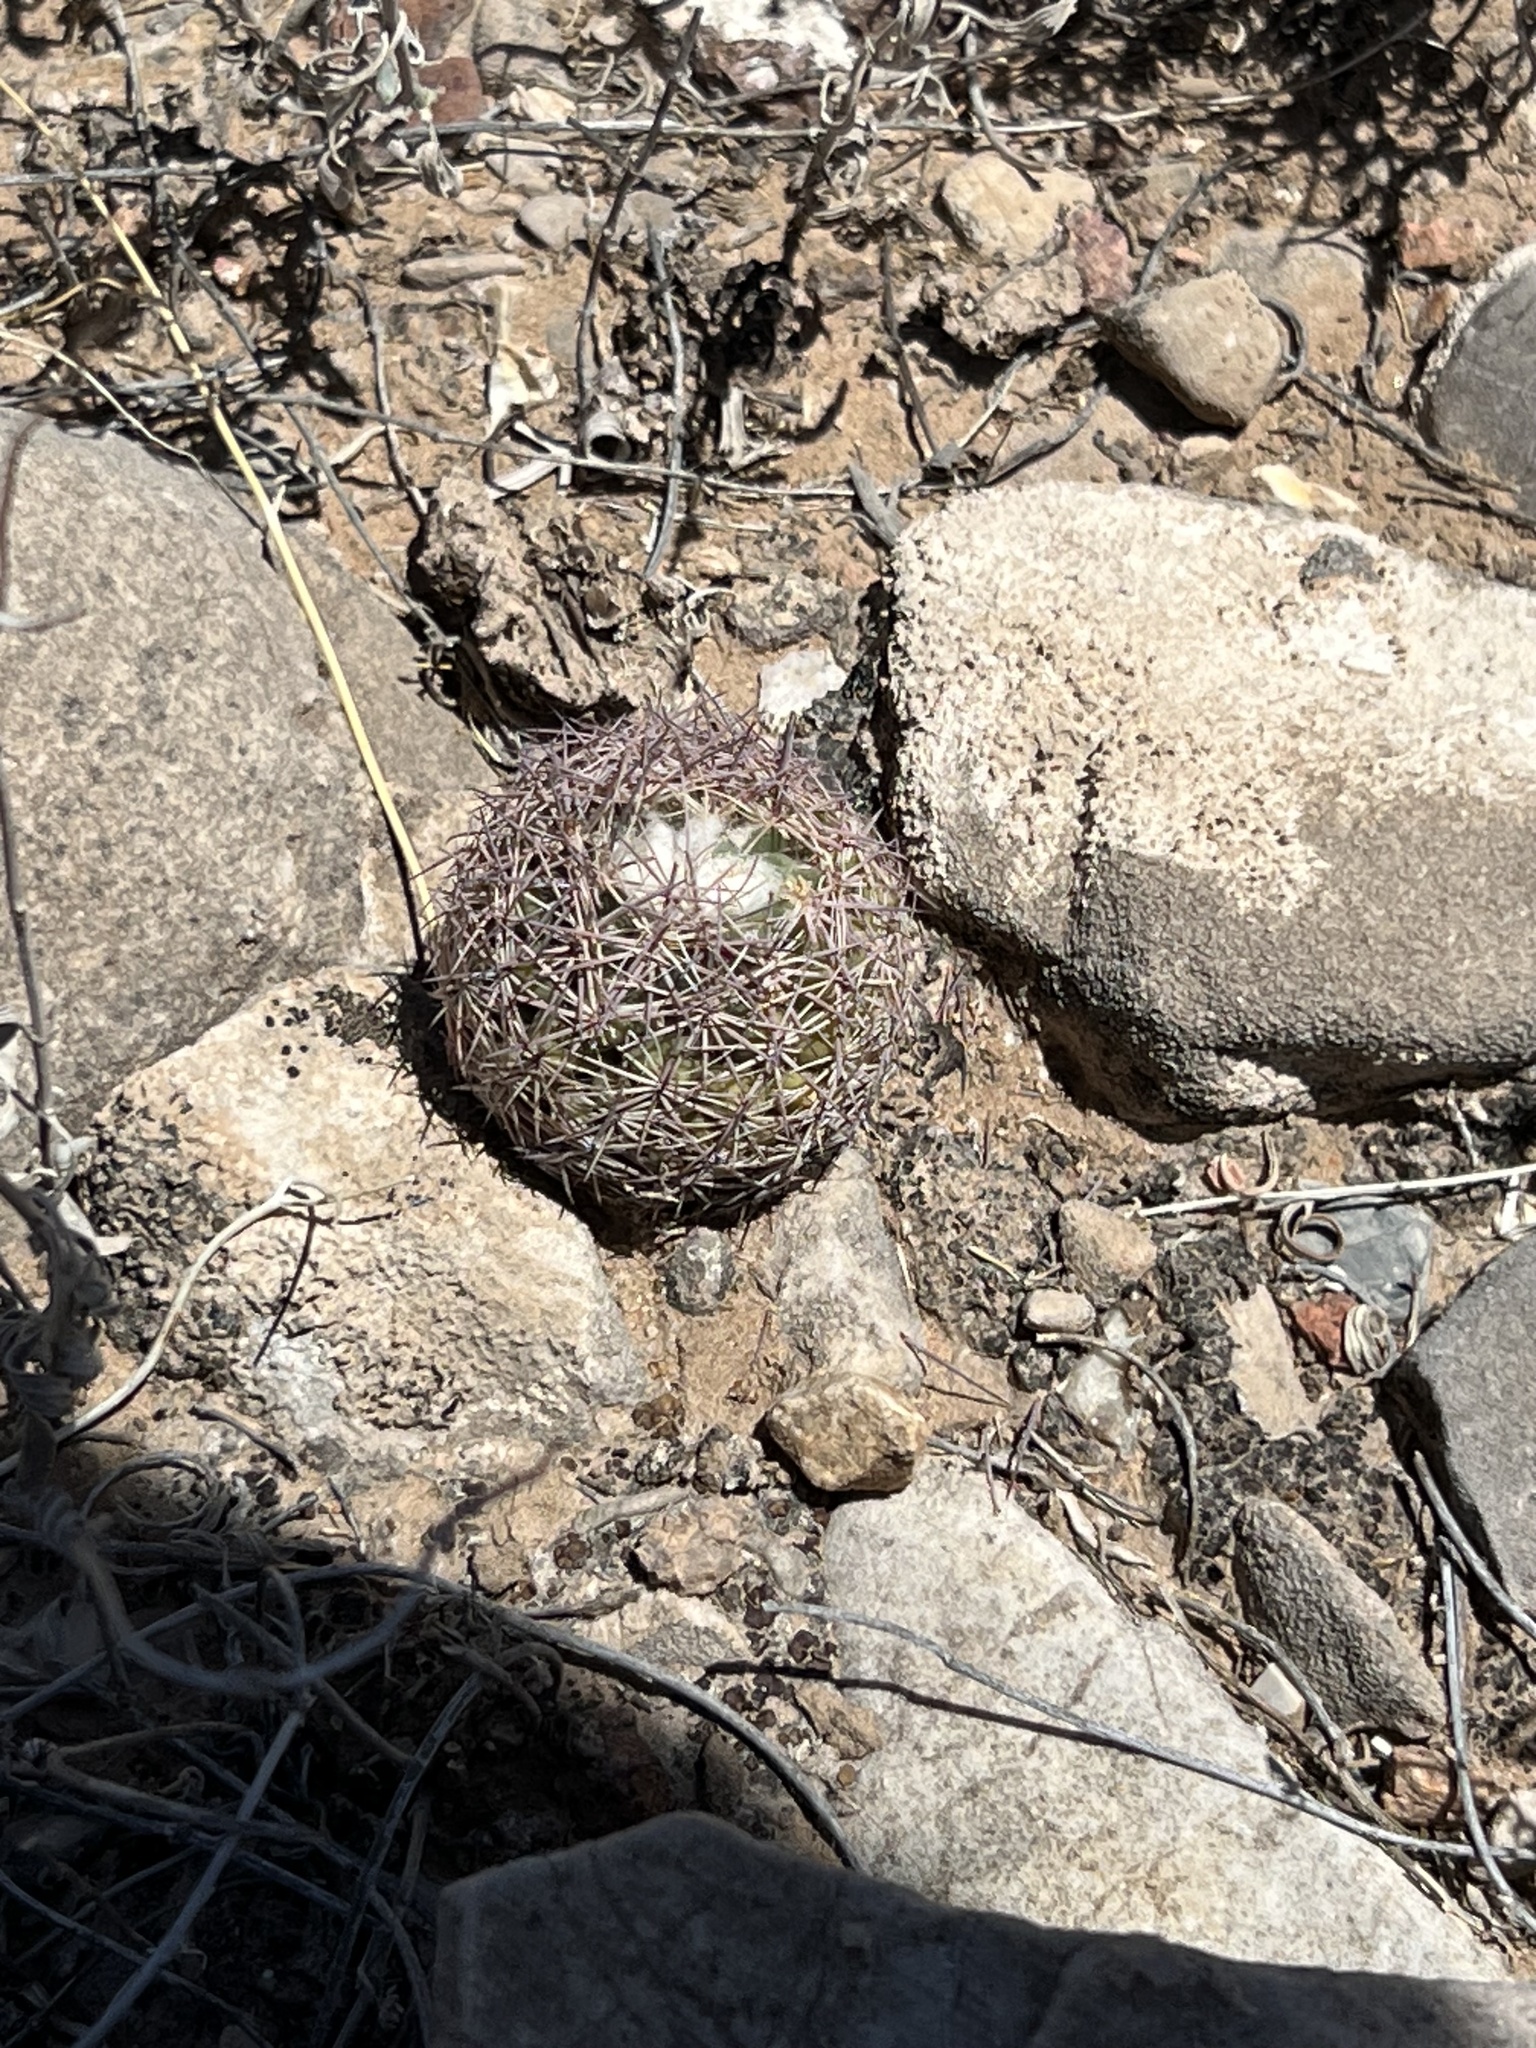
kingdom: Plantae
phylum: Tracheophyta
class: Magnoliopsida
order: Caryophyllales
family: Cactaceae
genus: Sclerocactus
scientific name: Sclerocactus intertextus
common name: White fish-hook cactus
